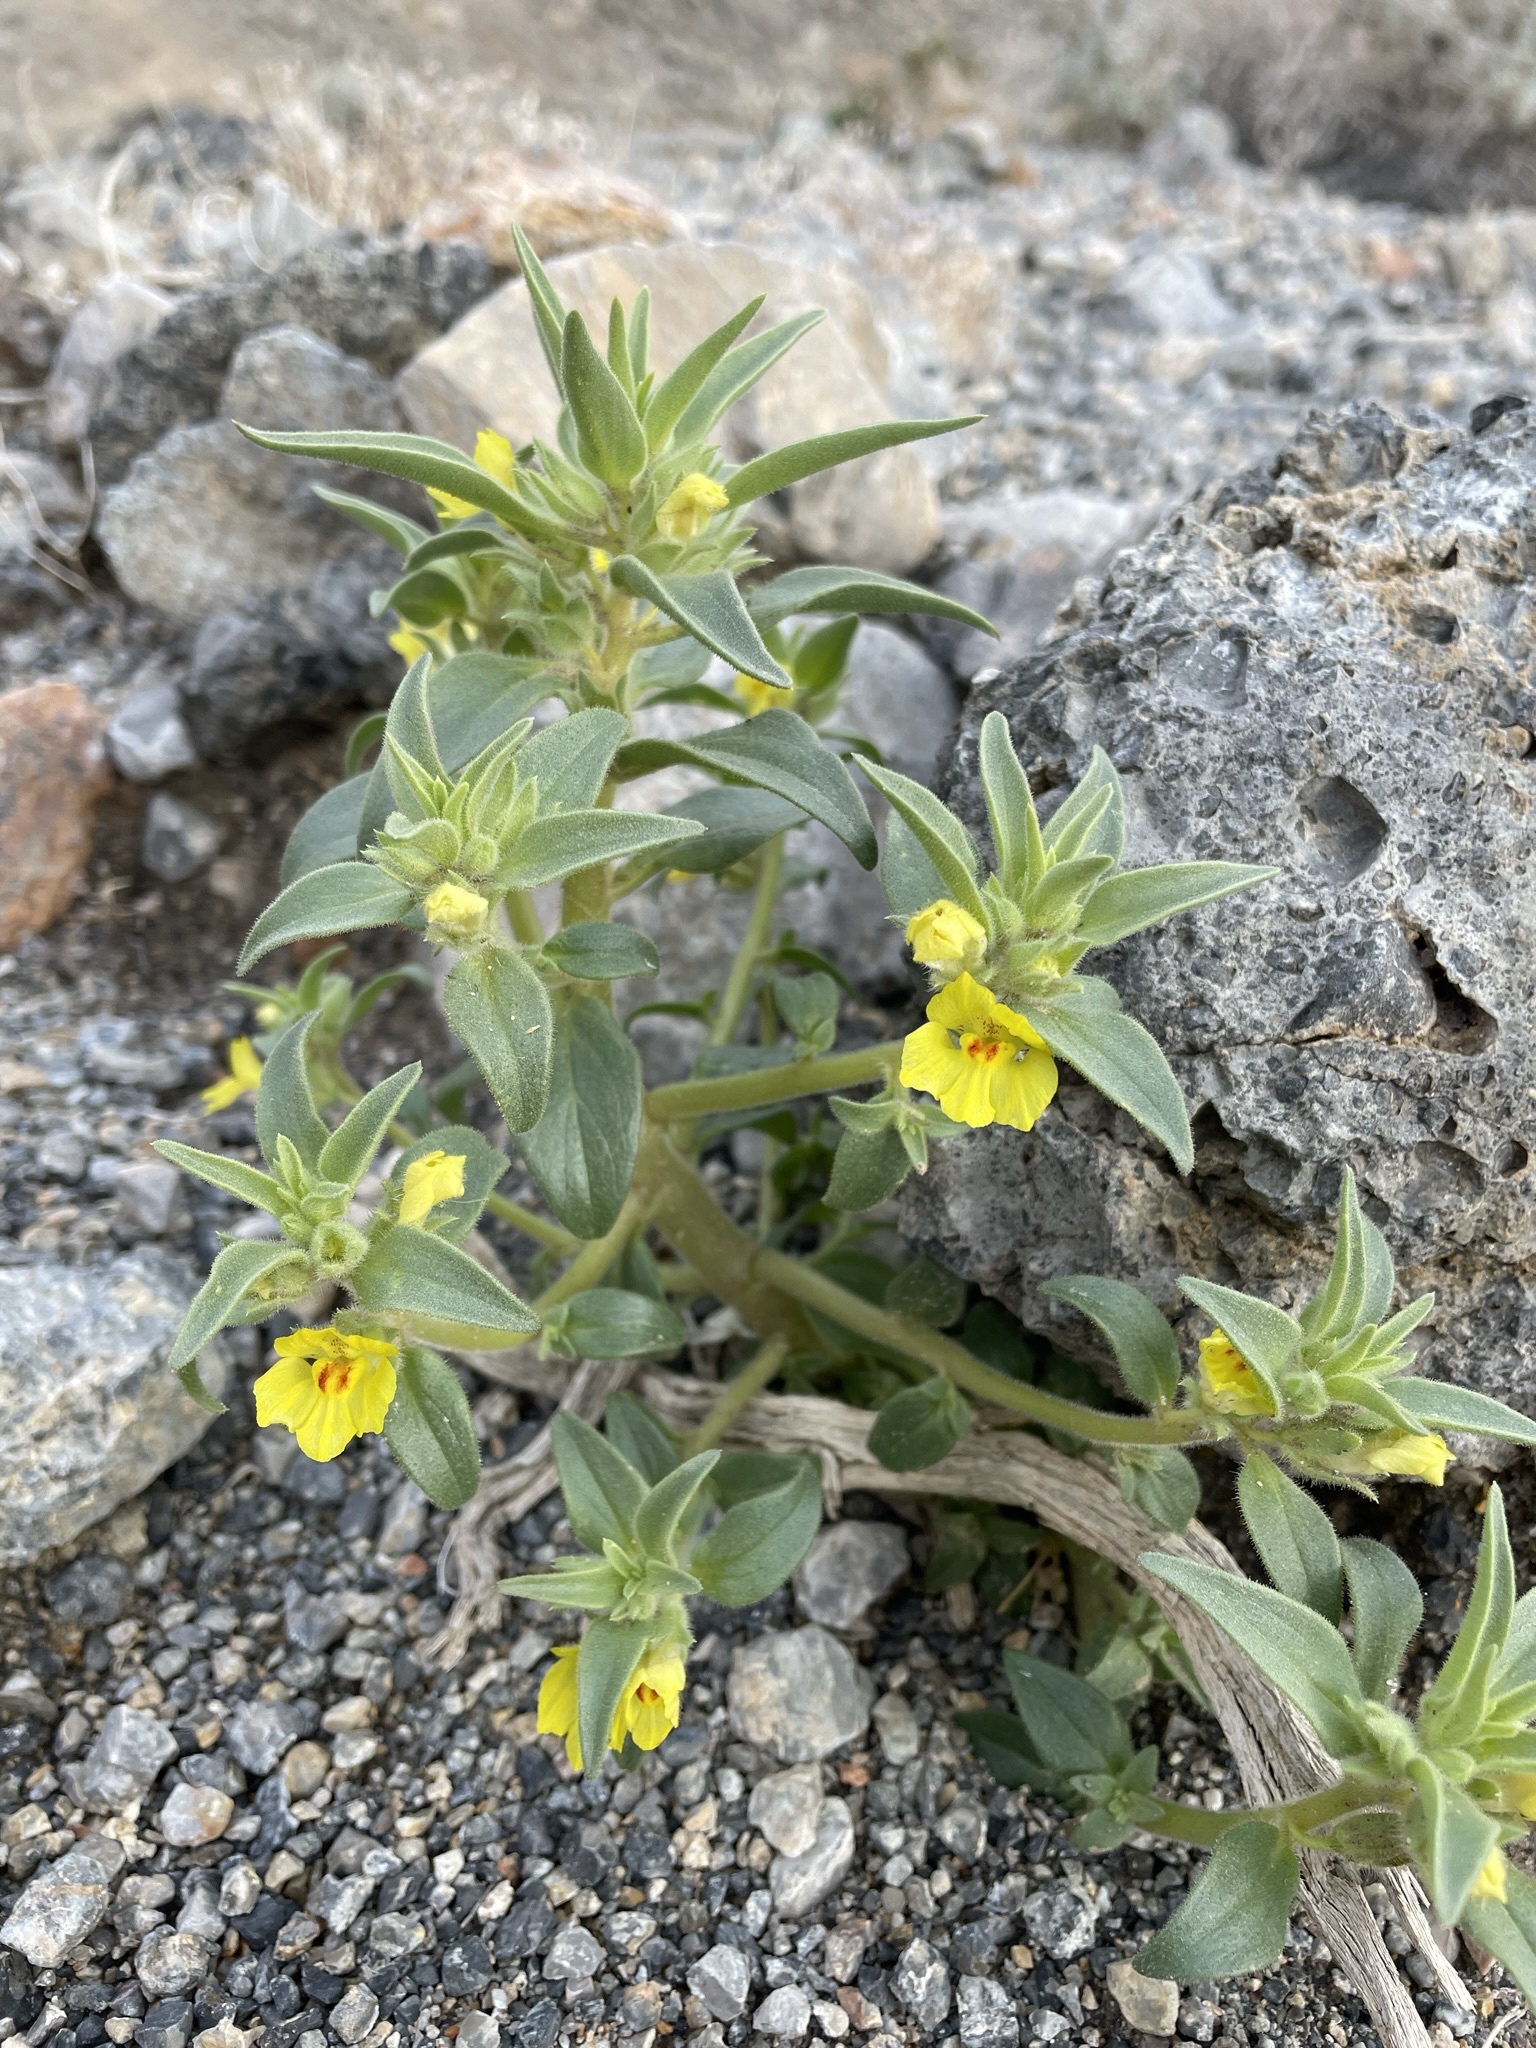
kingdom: Plantae
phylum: Tracheophyta
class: Magnoliopsida
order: Lamiales
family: Plantaginaceae
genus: Mohavea
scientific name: Mohavea breviflora
